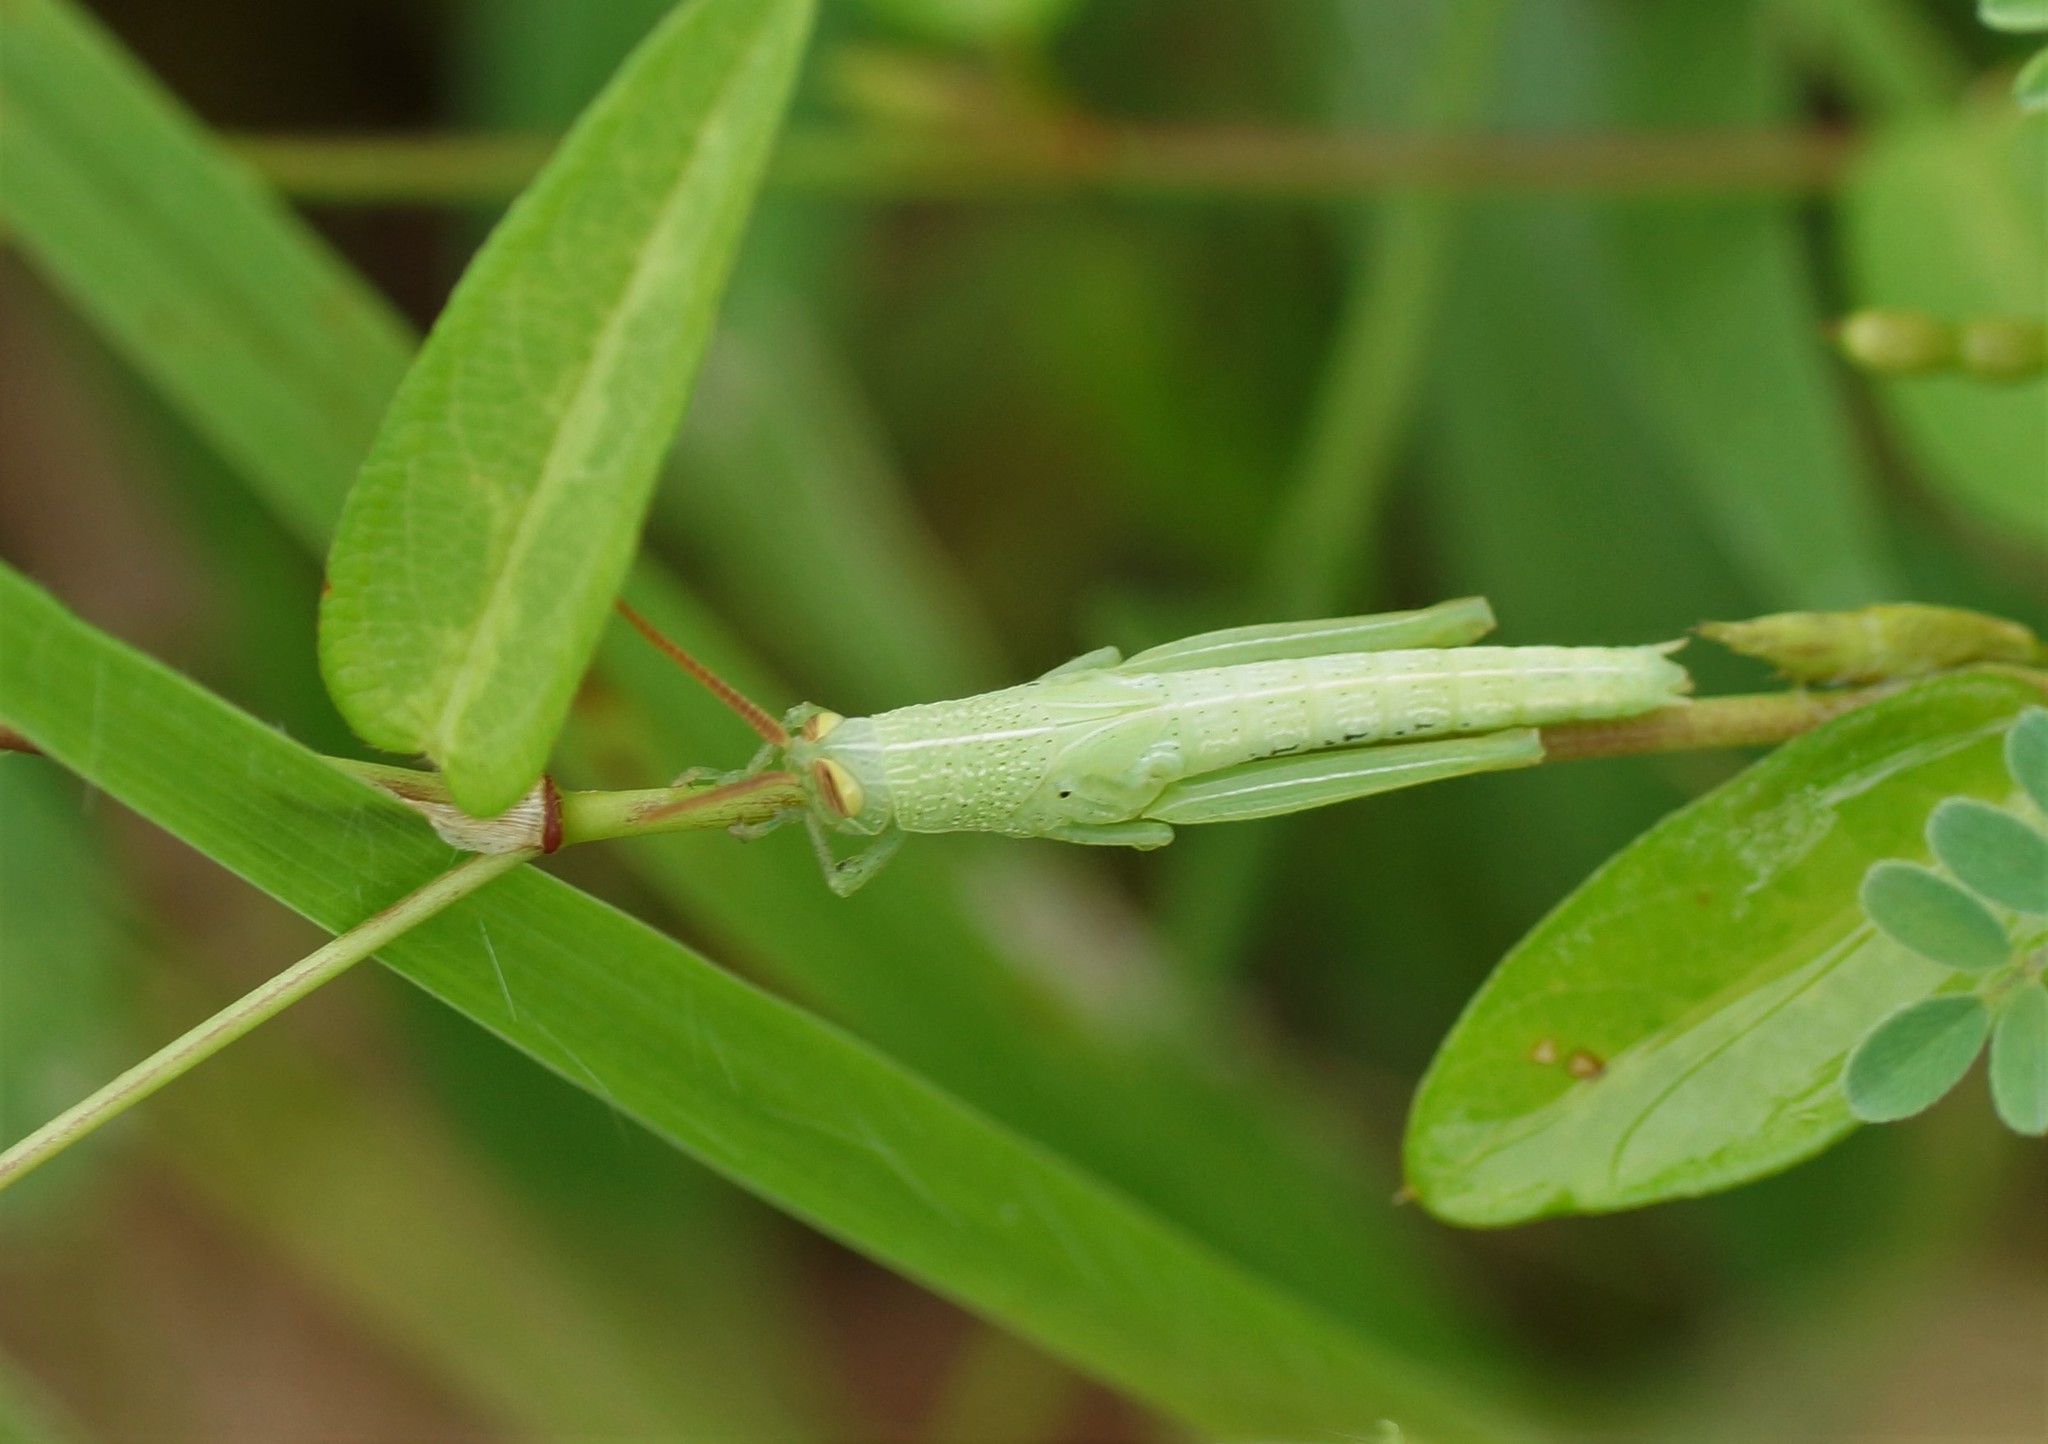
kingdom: Animalia
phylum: Arthropoda
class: Insecta
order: Orthoptera
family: Acrididae
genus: Stenocatantops
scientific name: Stenocatantops angustifrons
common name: Common tropical sharptail
